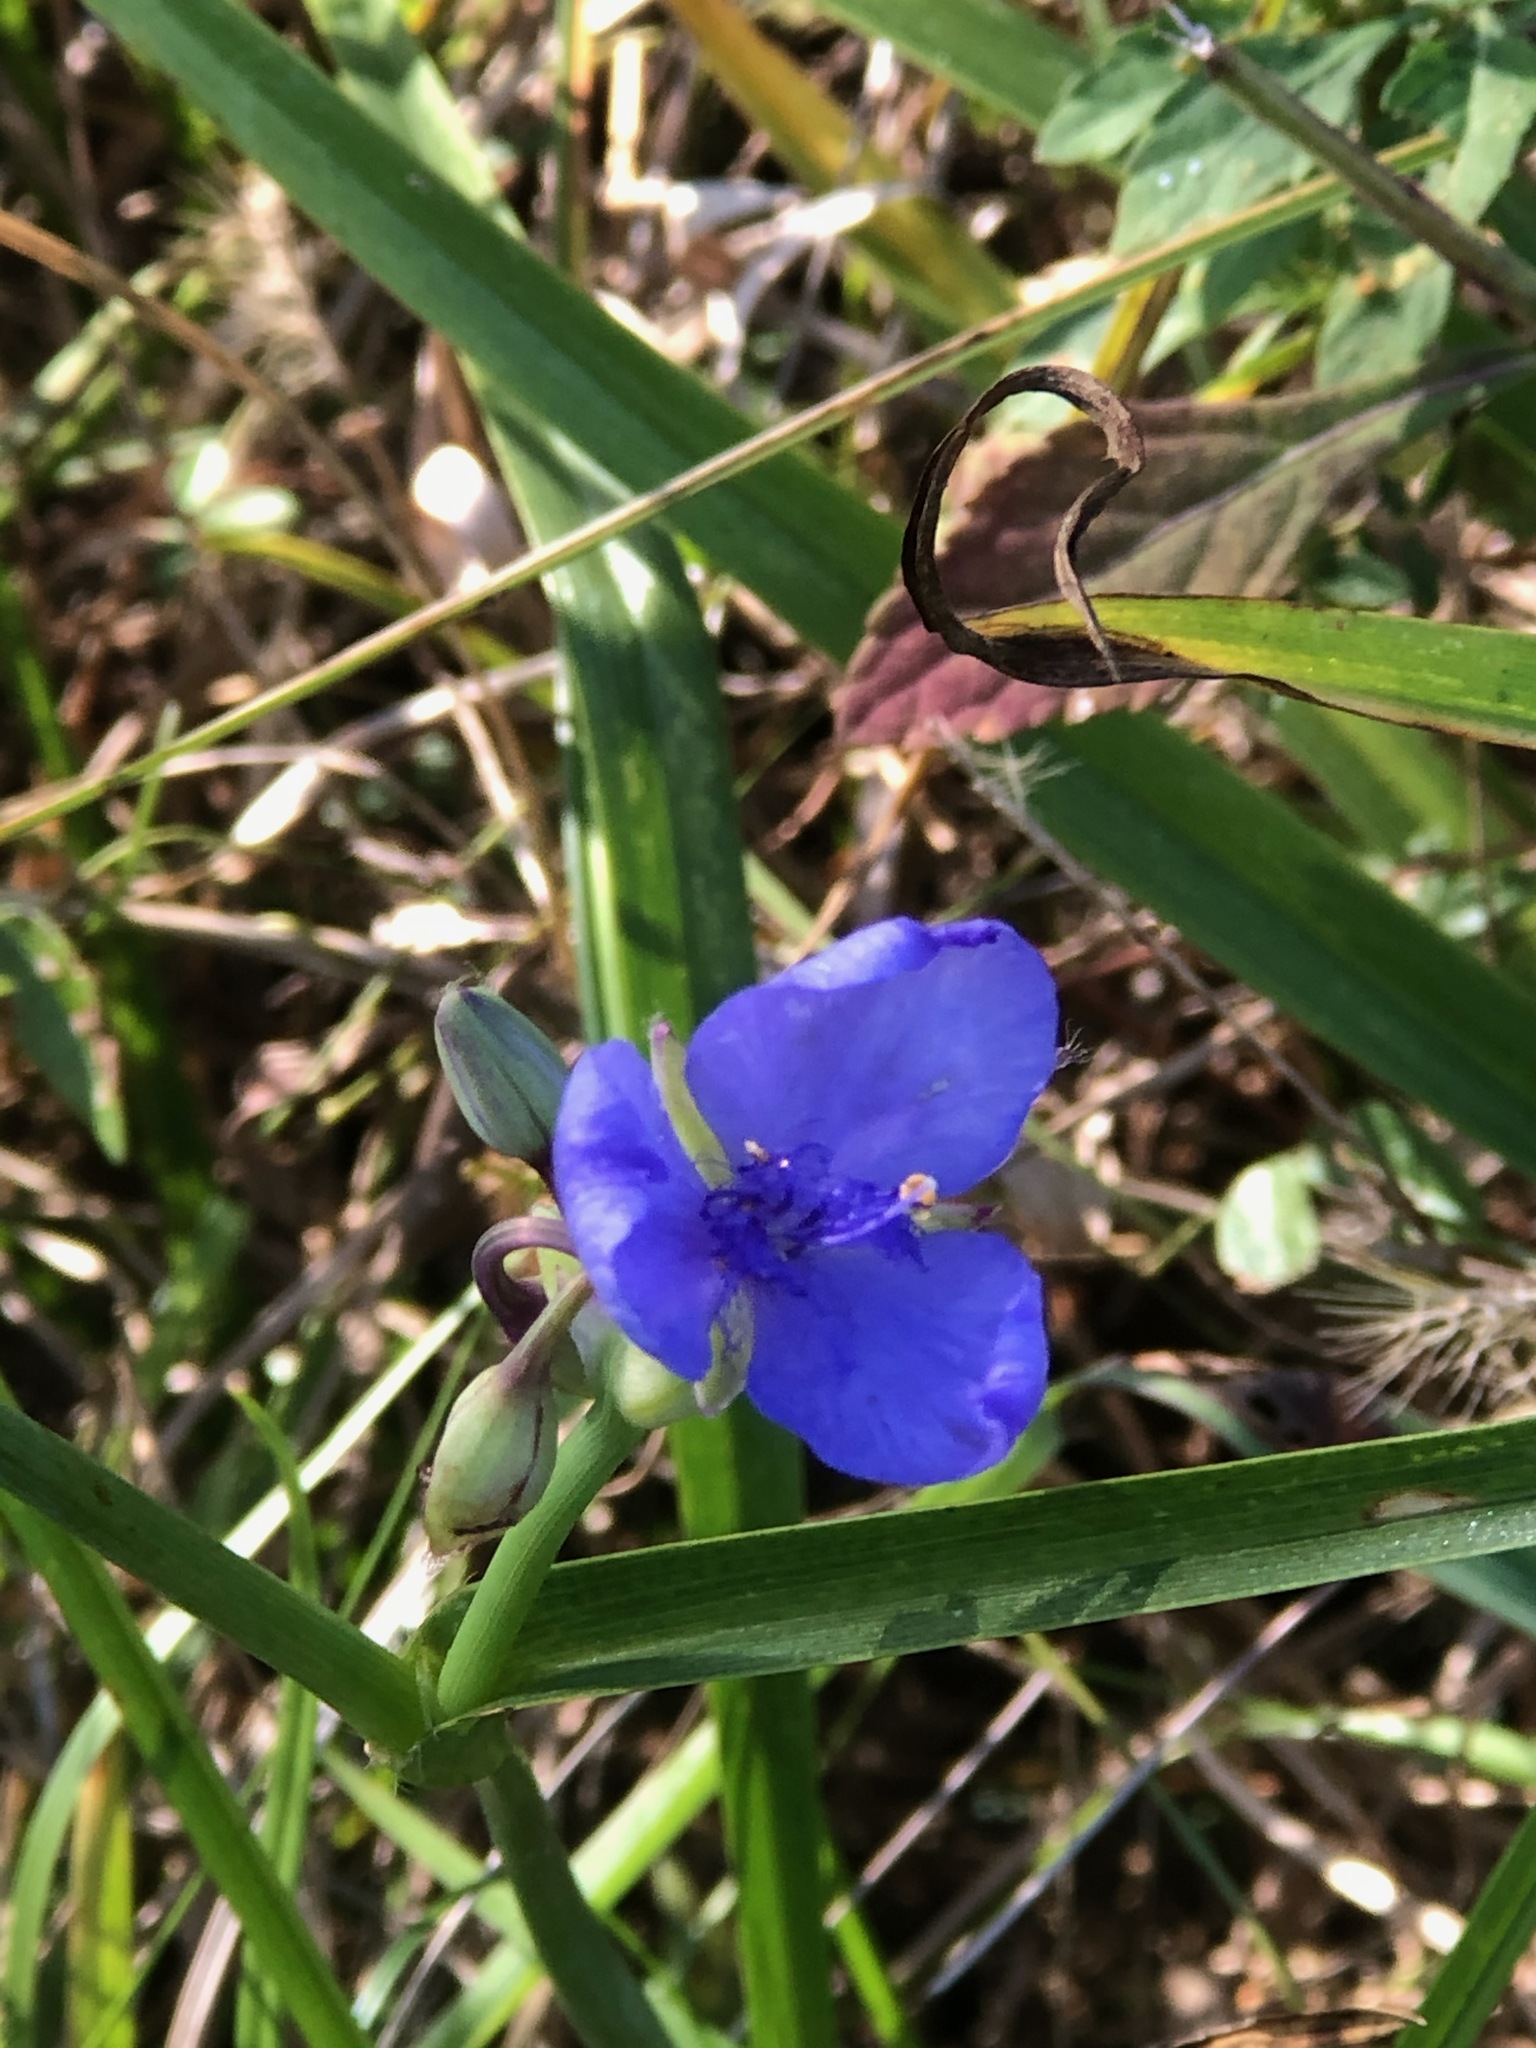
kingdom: Plantae
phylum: Tracheophyta
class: Liliopsida
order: Commelinales
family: Commelinaceae
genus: Tradescantia
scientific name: Tradescantia ohiensis
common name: Ohio spiderwort
